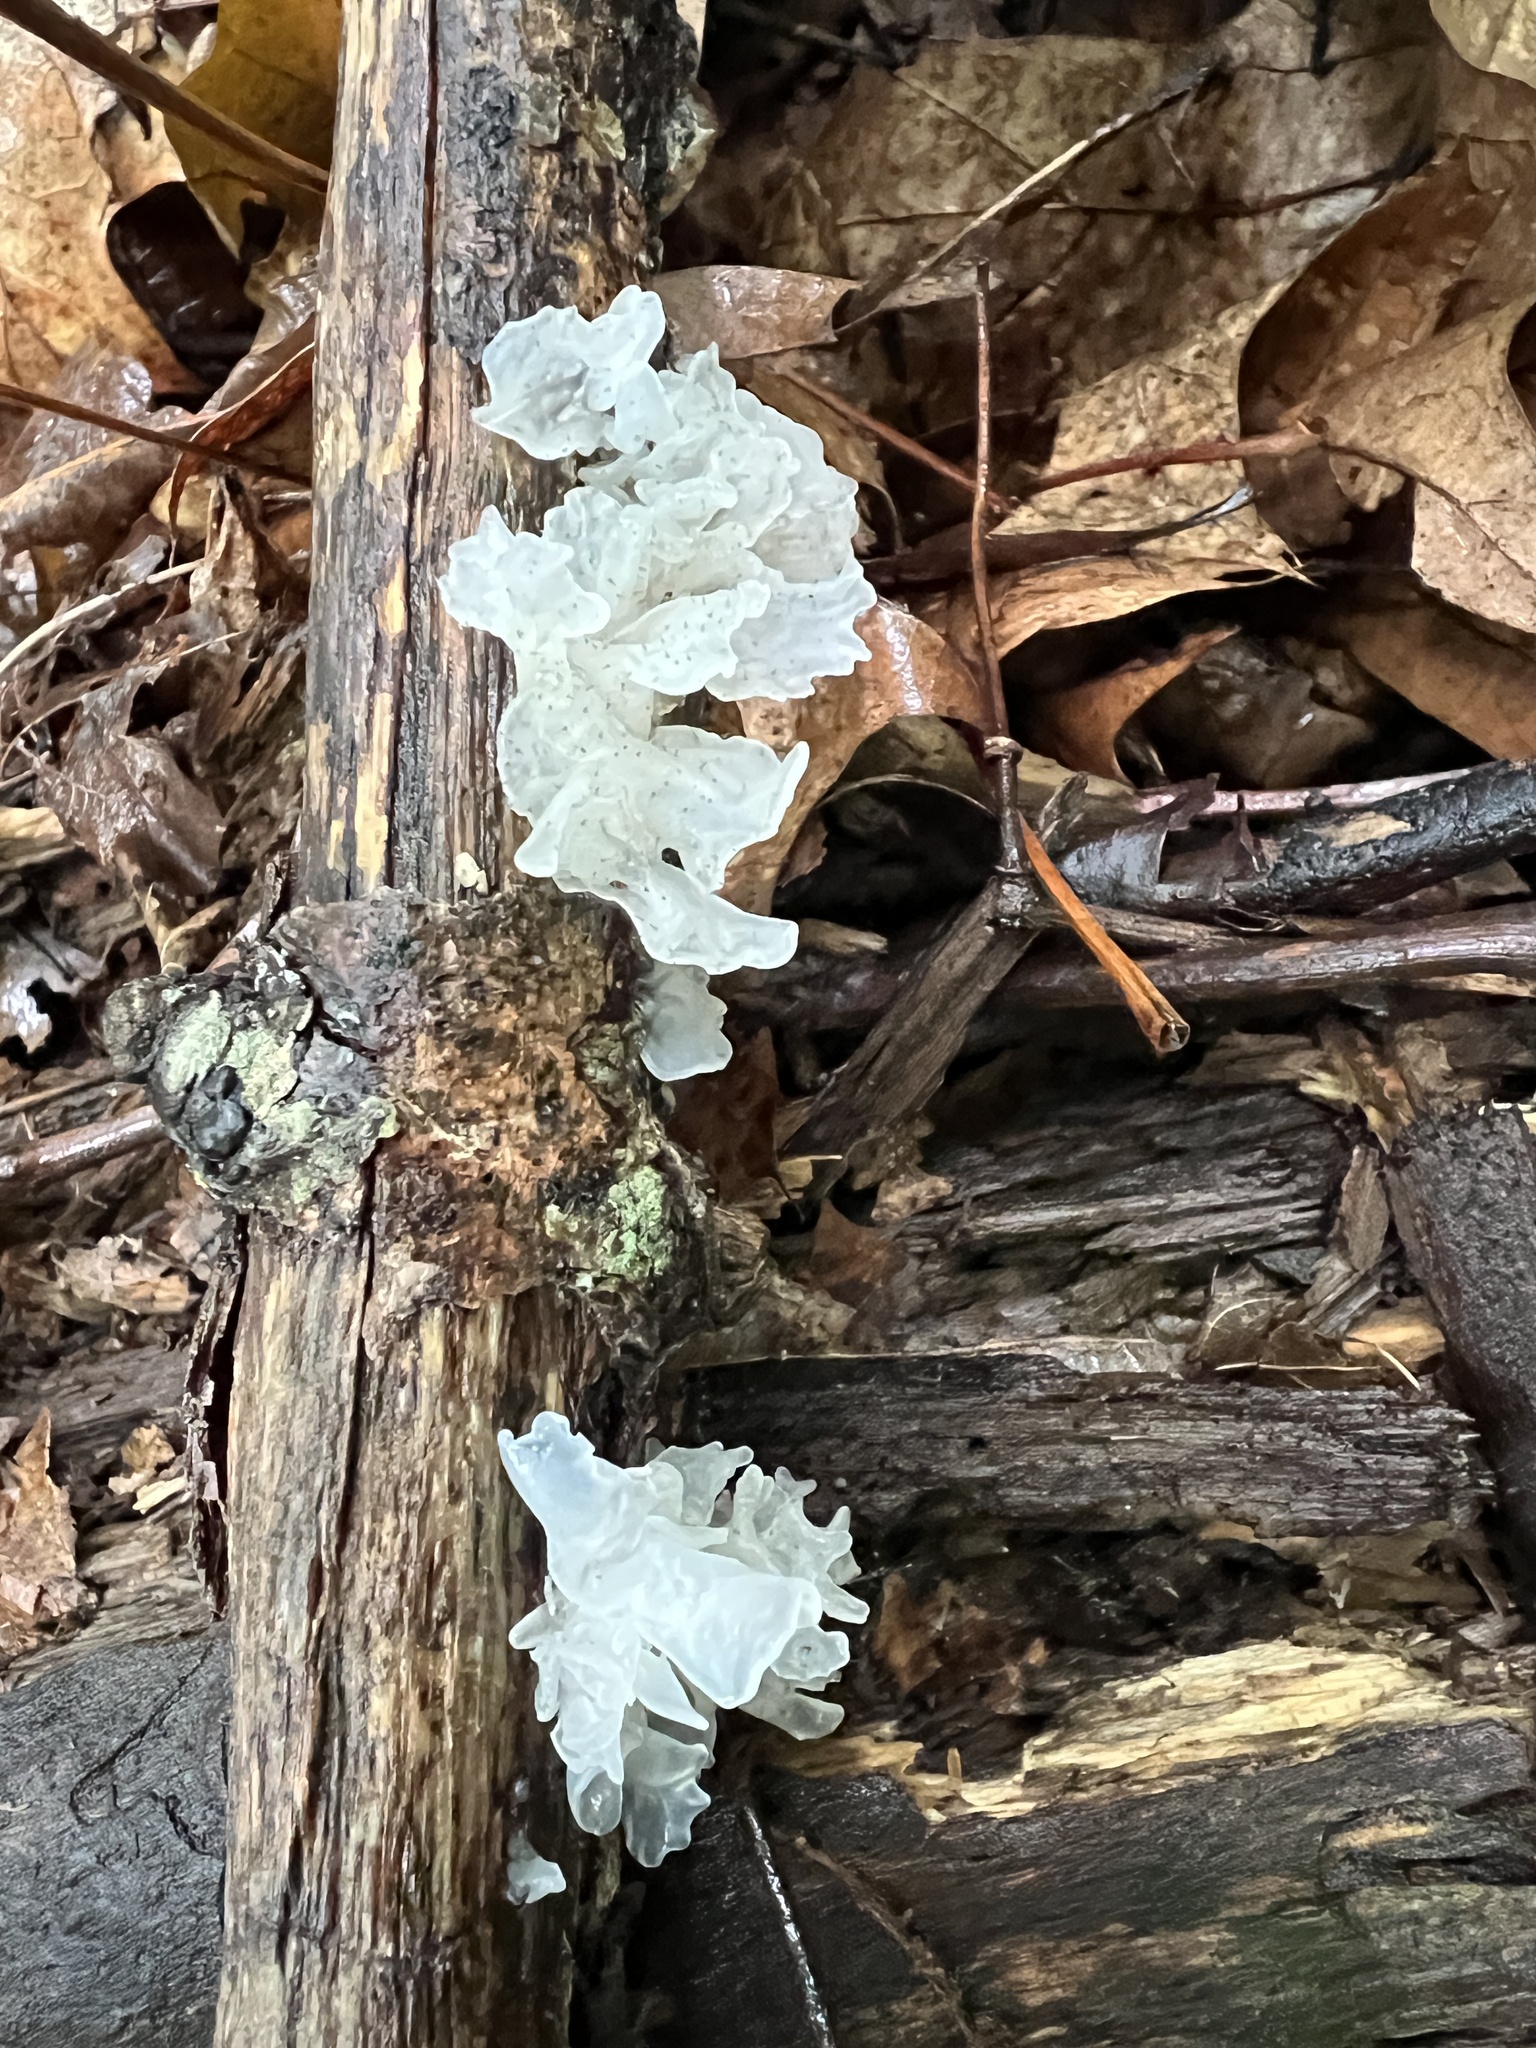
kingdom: Fungi
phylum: Basidiomycota
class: Tremellomycetes
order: Tremellales
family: Tremellaceae
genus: Tremella
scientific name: Tremella fuciformis
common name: Snow fungus
